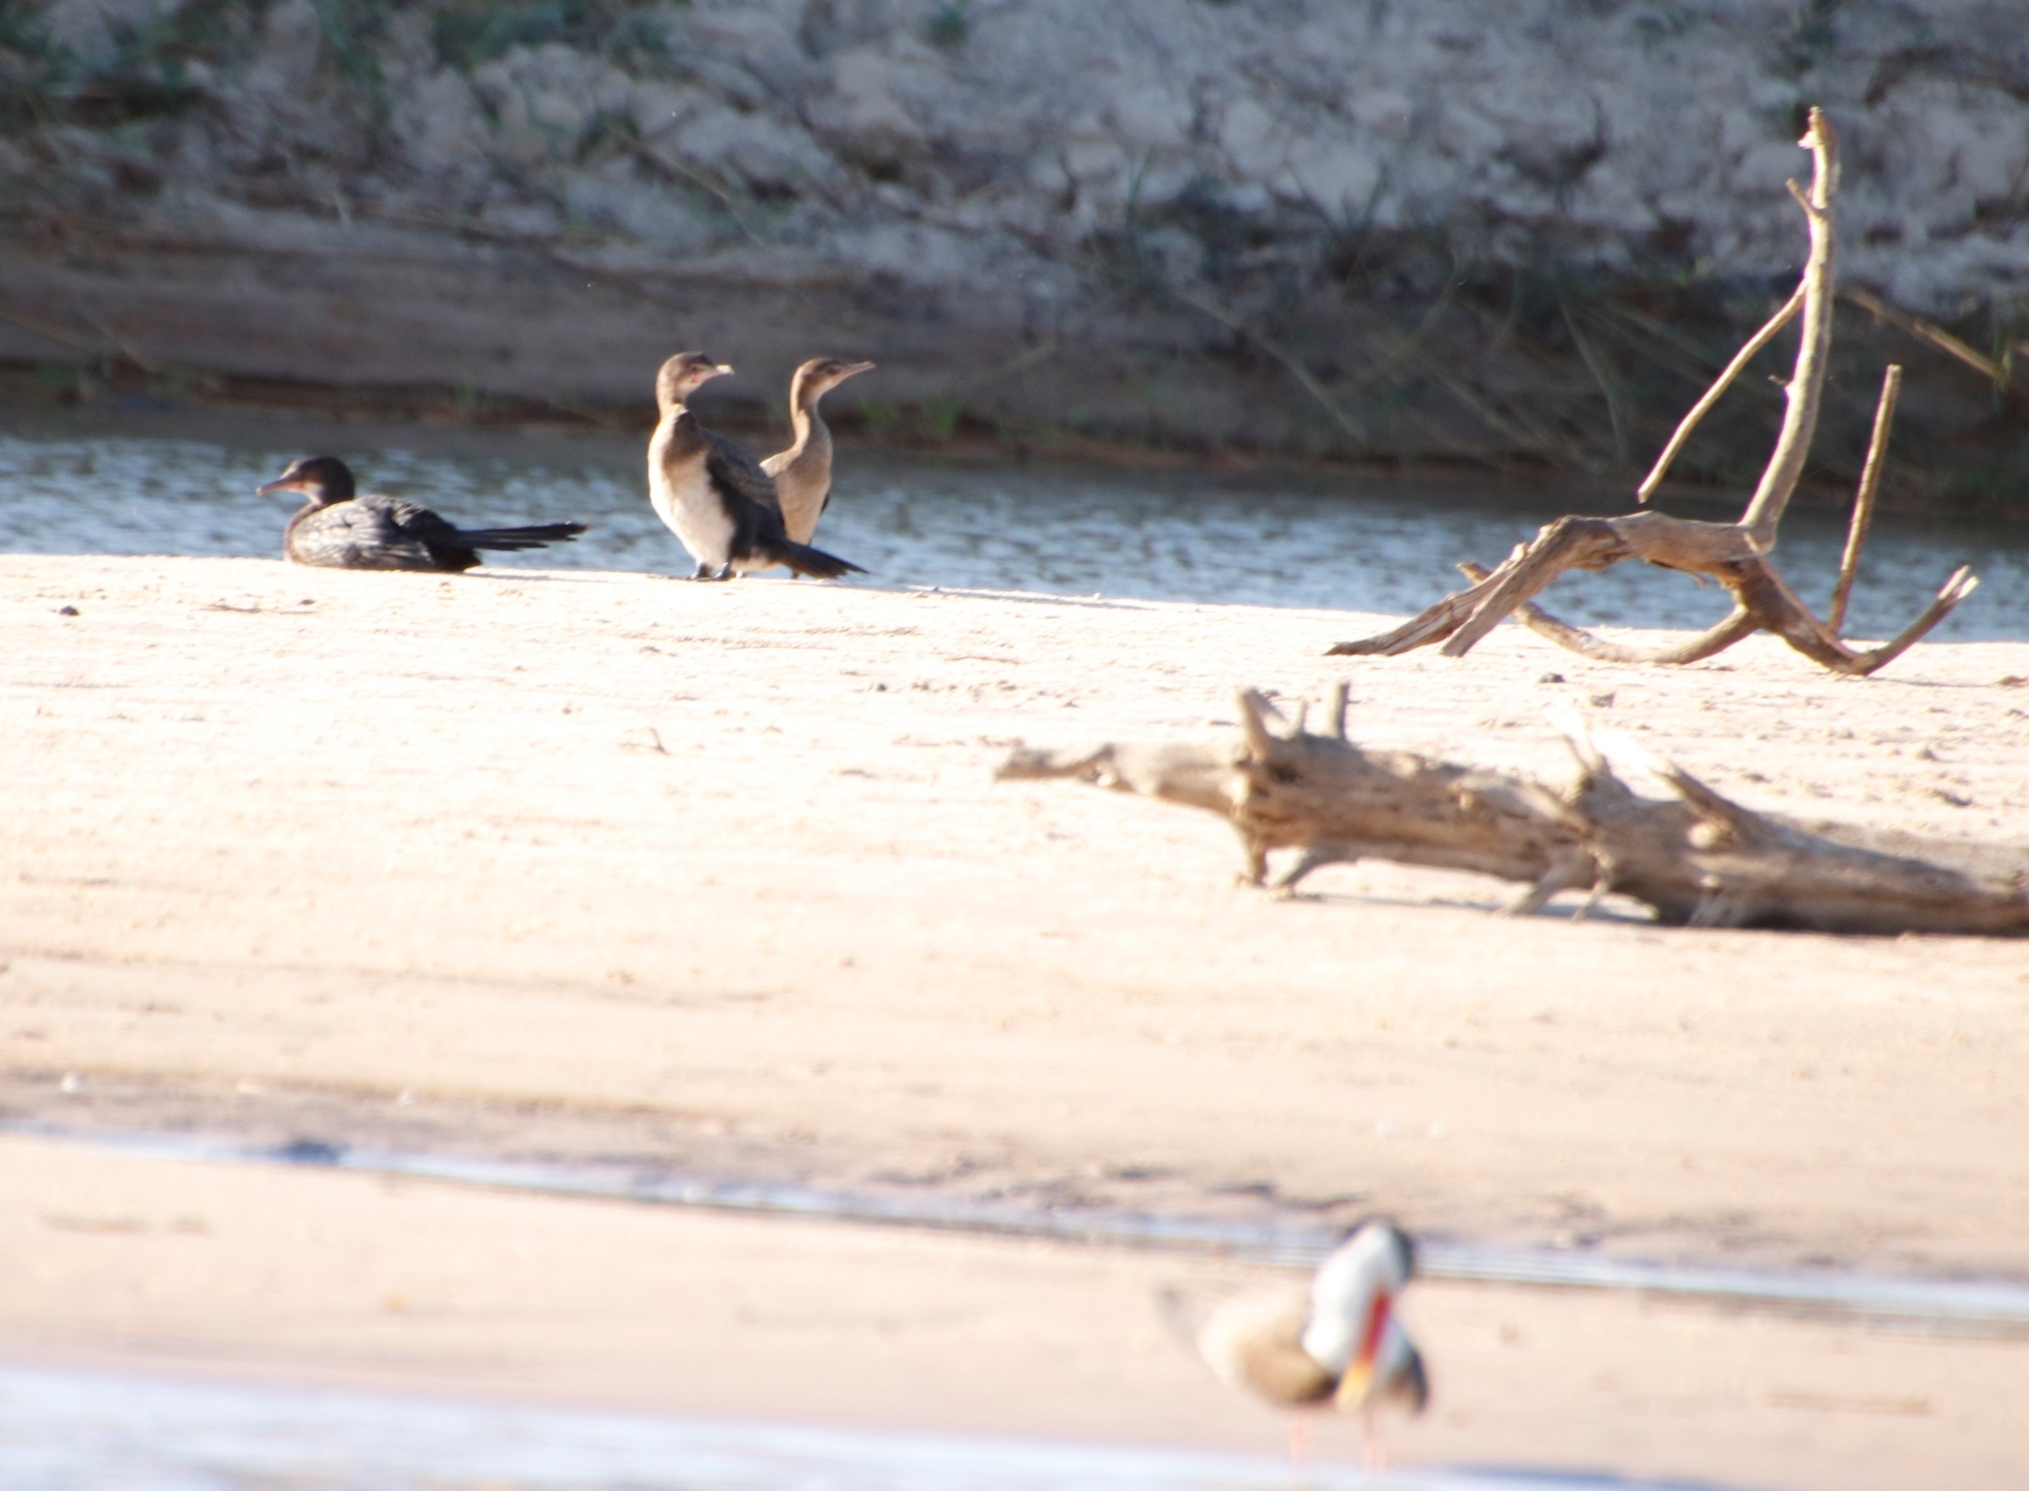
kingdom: Animalia
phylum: Chordata
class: Aves
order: Suliformes
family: Phalacrocoracidae
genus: Microcarbo
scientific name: Microcarbo africanus
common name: Long-tailed cormorant
